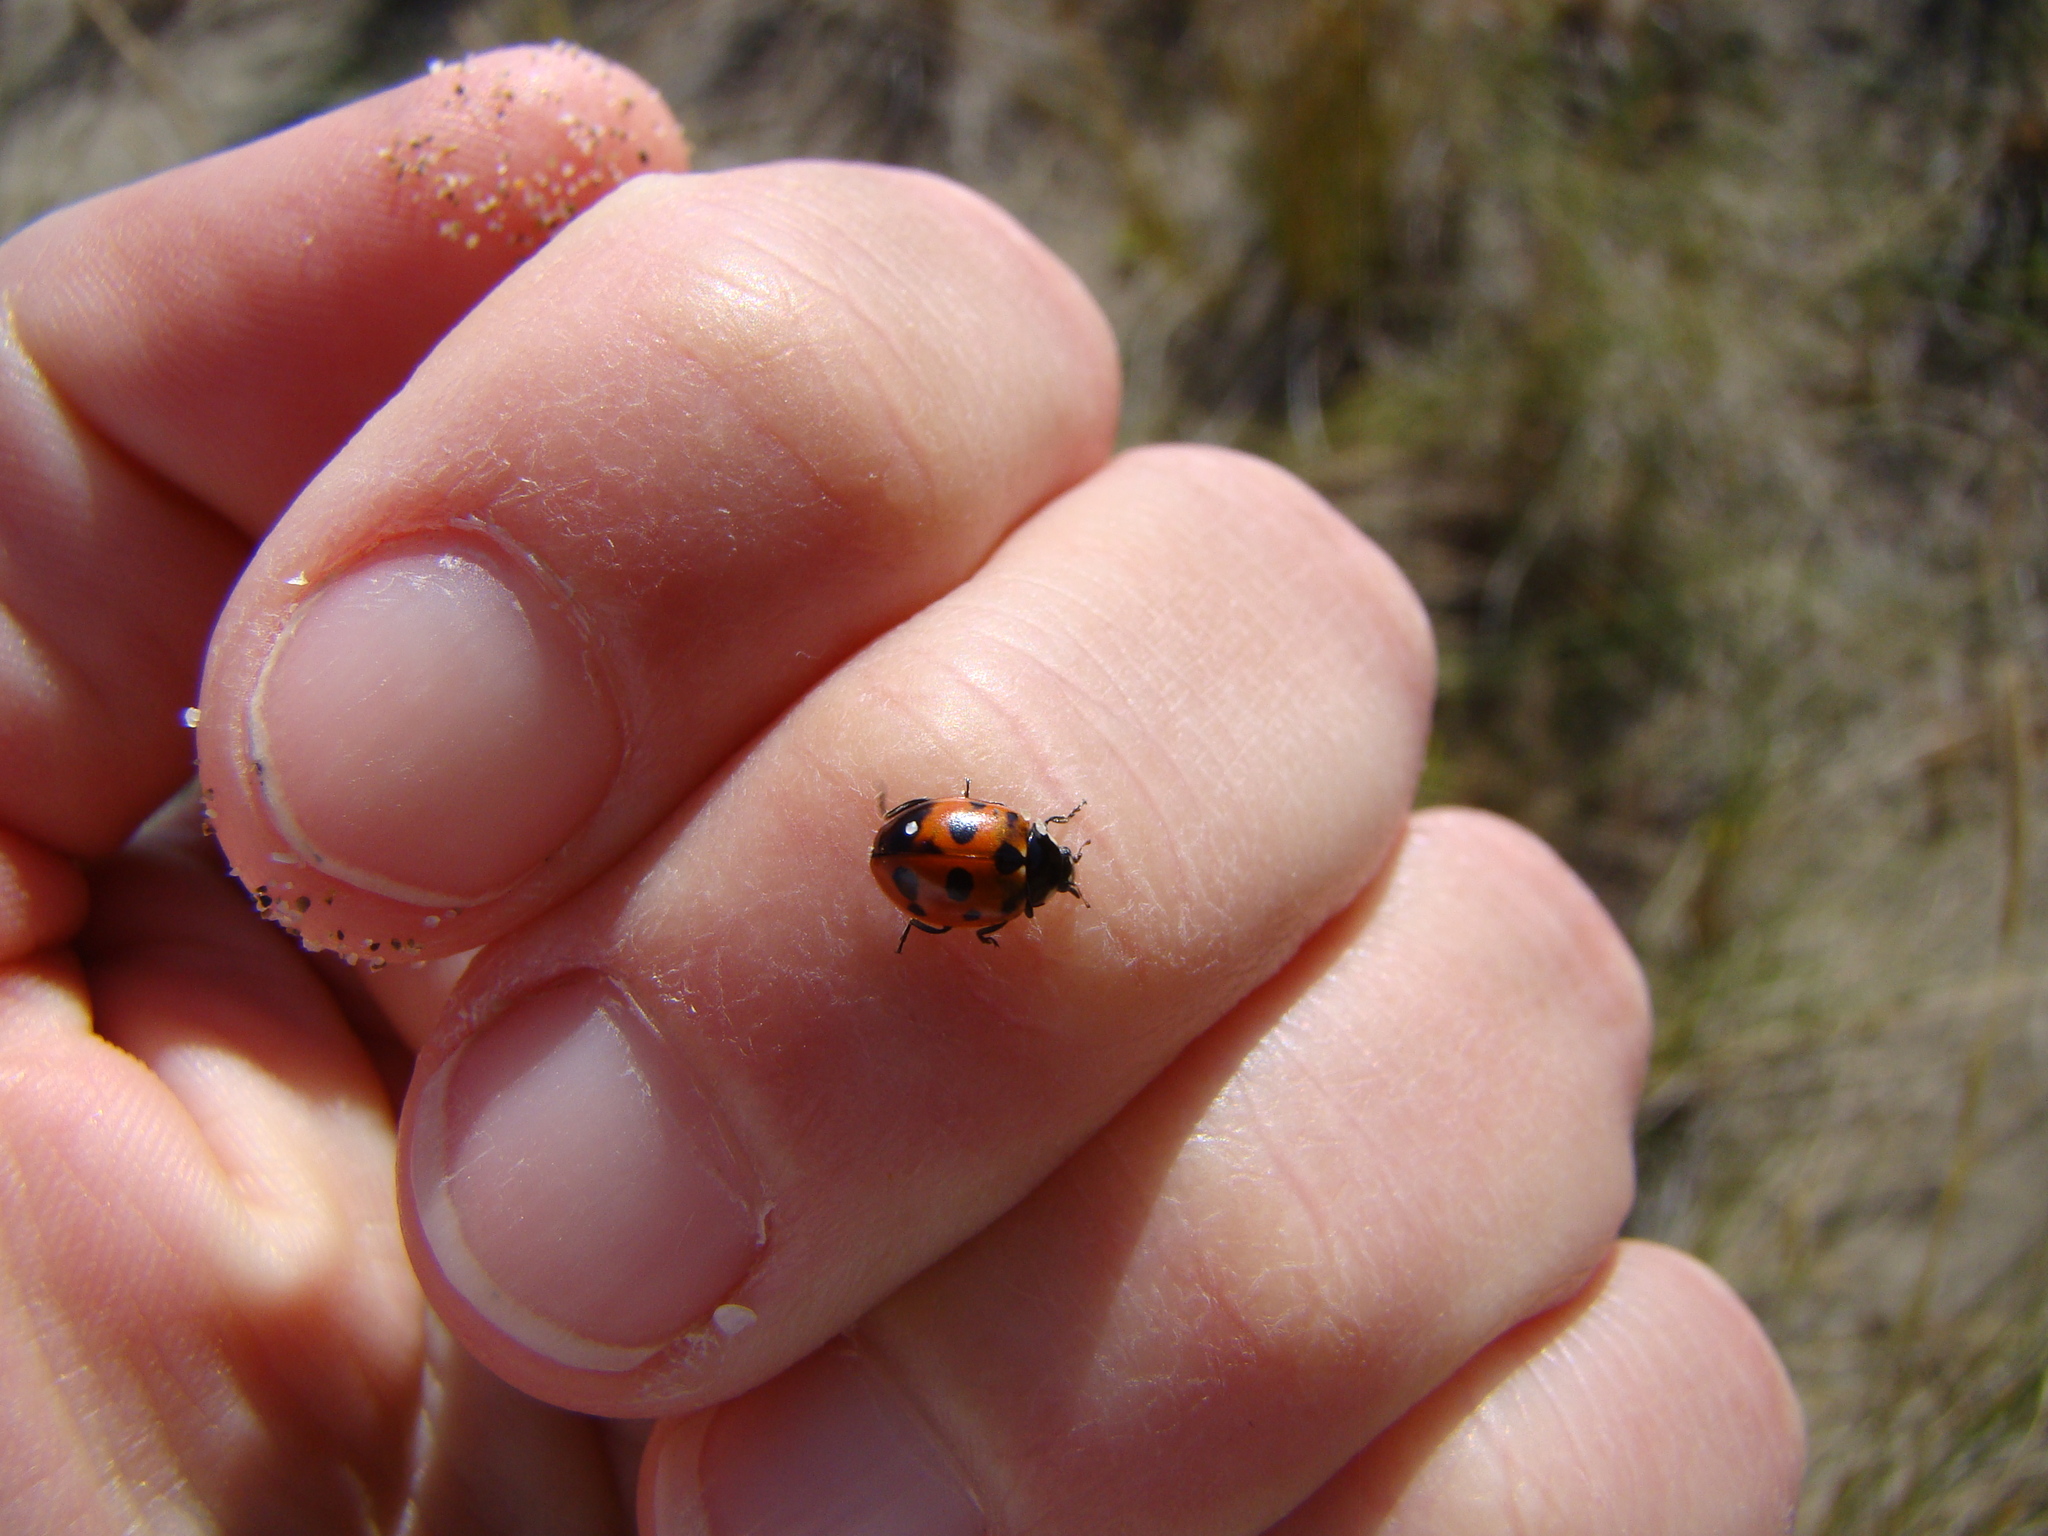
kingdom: Animalia
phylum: Arthropoda
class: Insecta
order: Coleoptera
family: Coccinellidae
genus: Coccinella
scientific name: Coccinella undecimpunctata
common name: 11-spot ladybird
